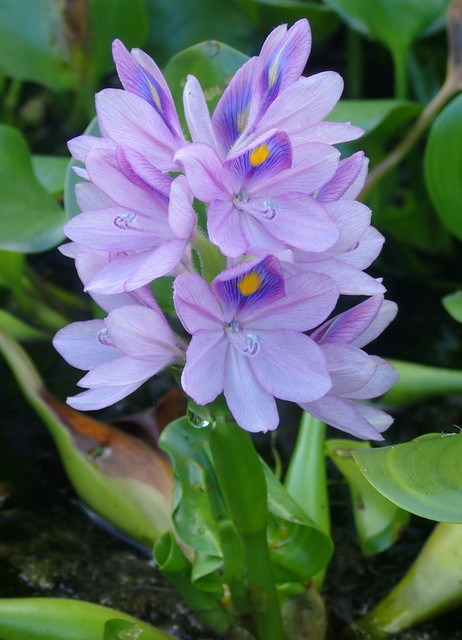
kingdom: Plantae
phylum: Tracheophyta
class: Liliopsida
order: Commelinales
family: Pontederiaceae
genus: Pontederia
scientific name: Pontederia crassipes
